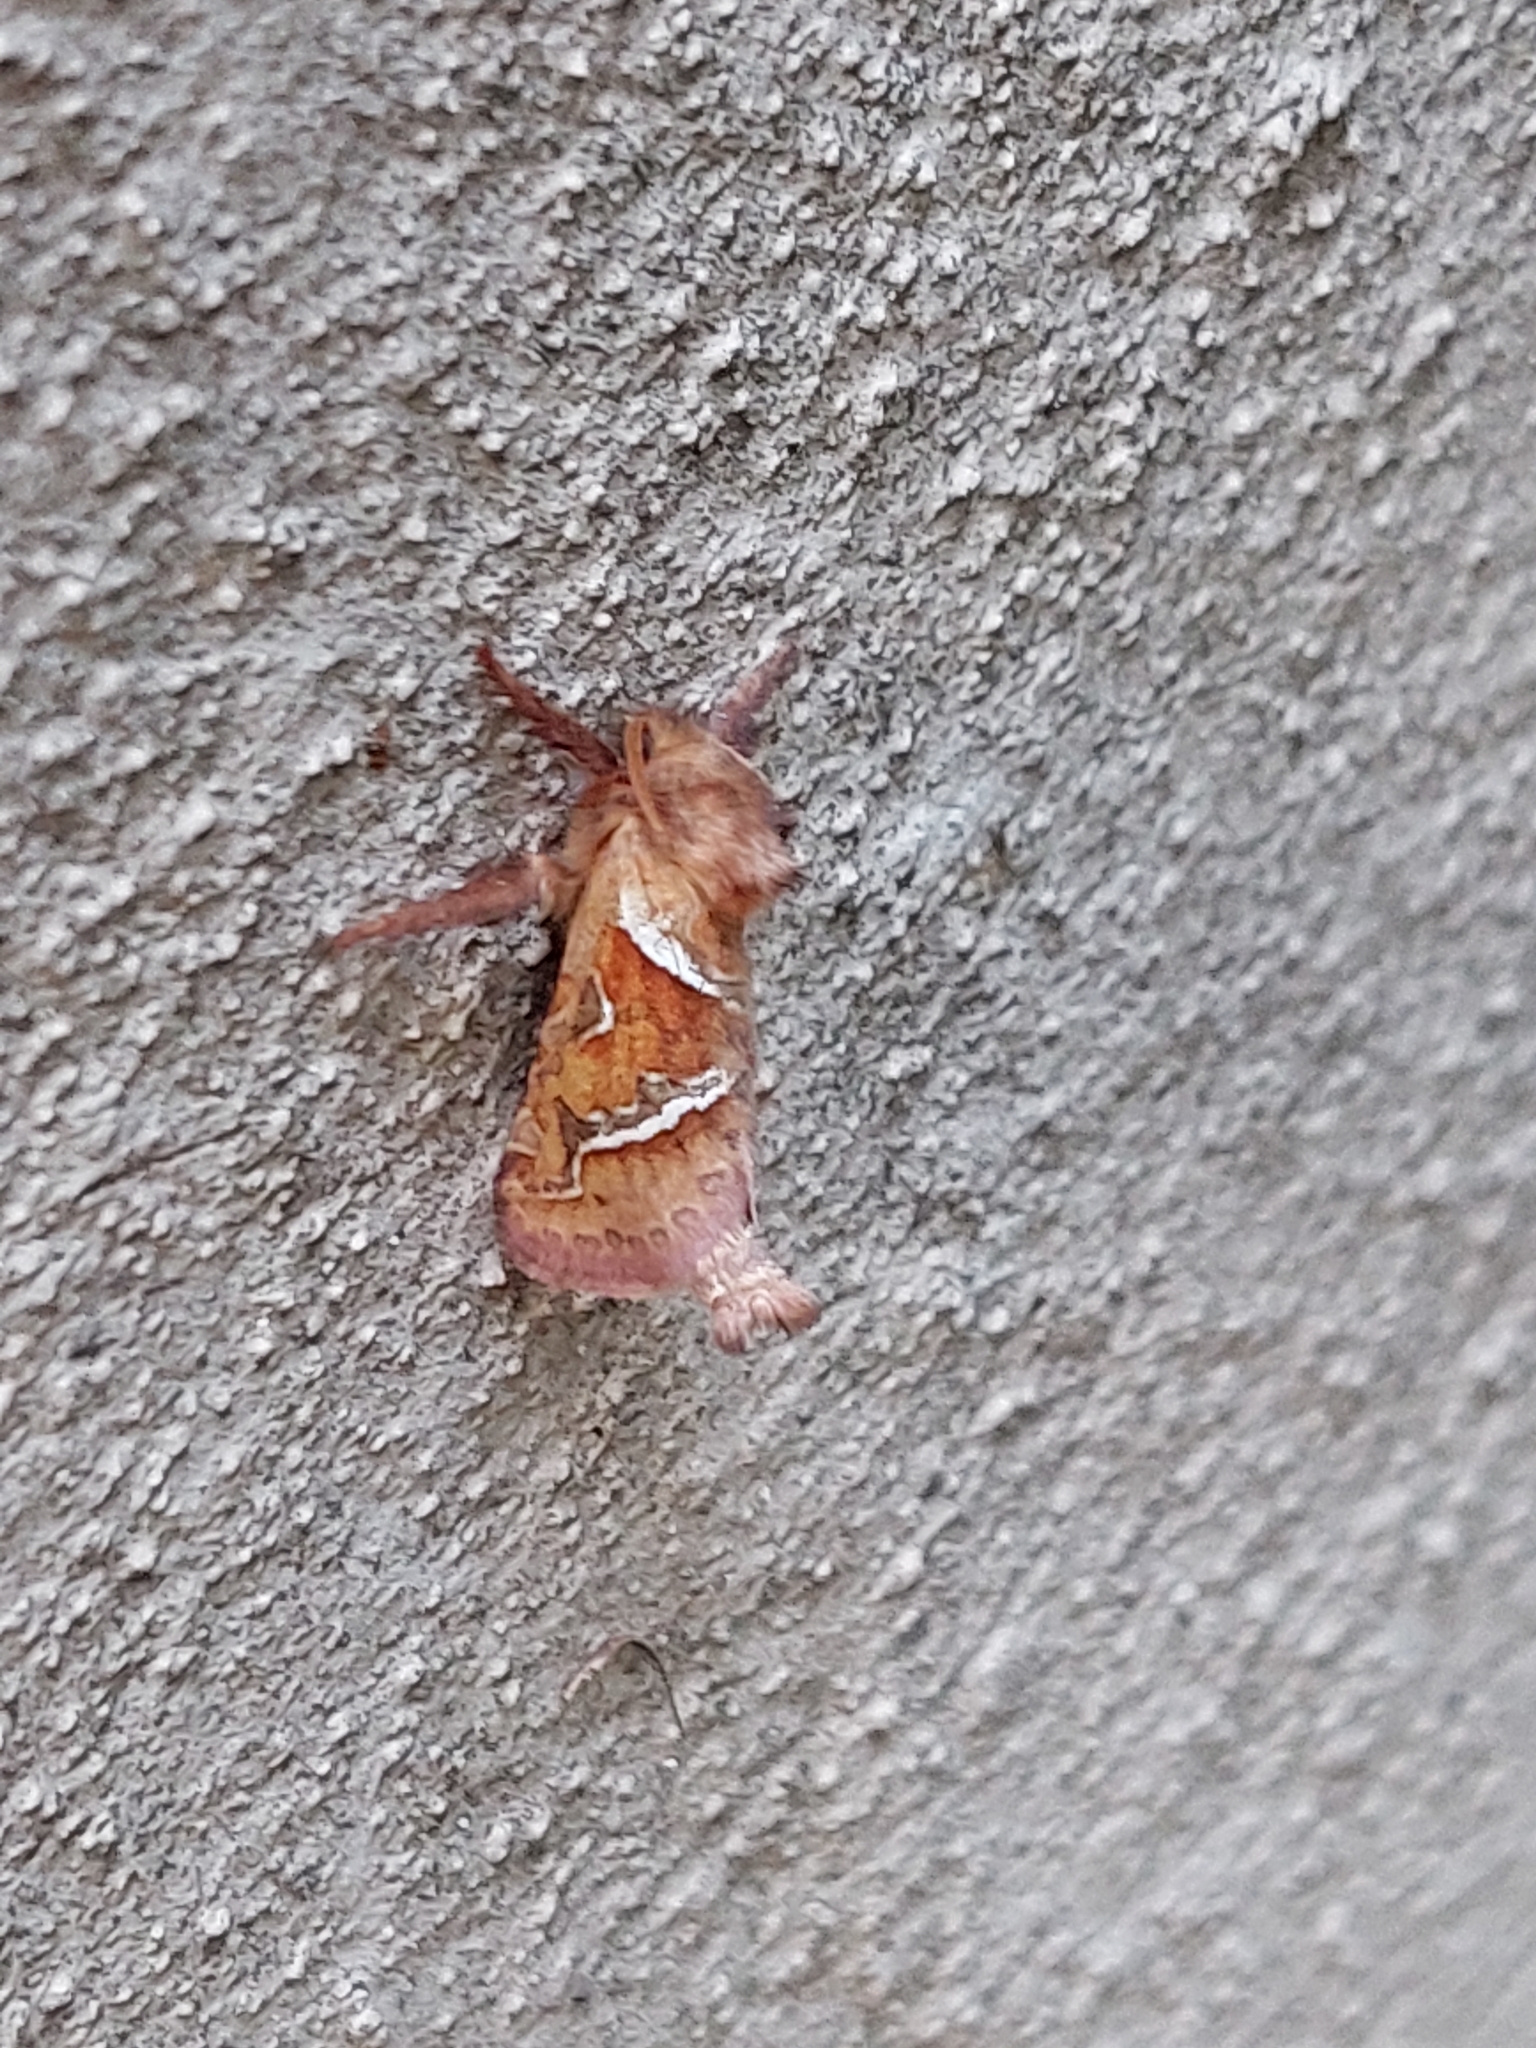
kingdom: Animalia
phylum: Arthropoda
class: Insecta
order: Lepidoptera
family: Hepialidae
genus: Triodia
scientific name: Triodia sylvina
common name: Orange swift
